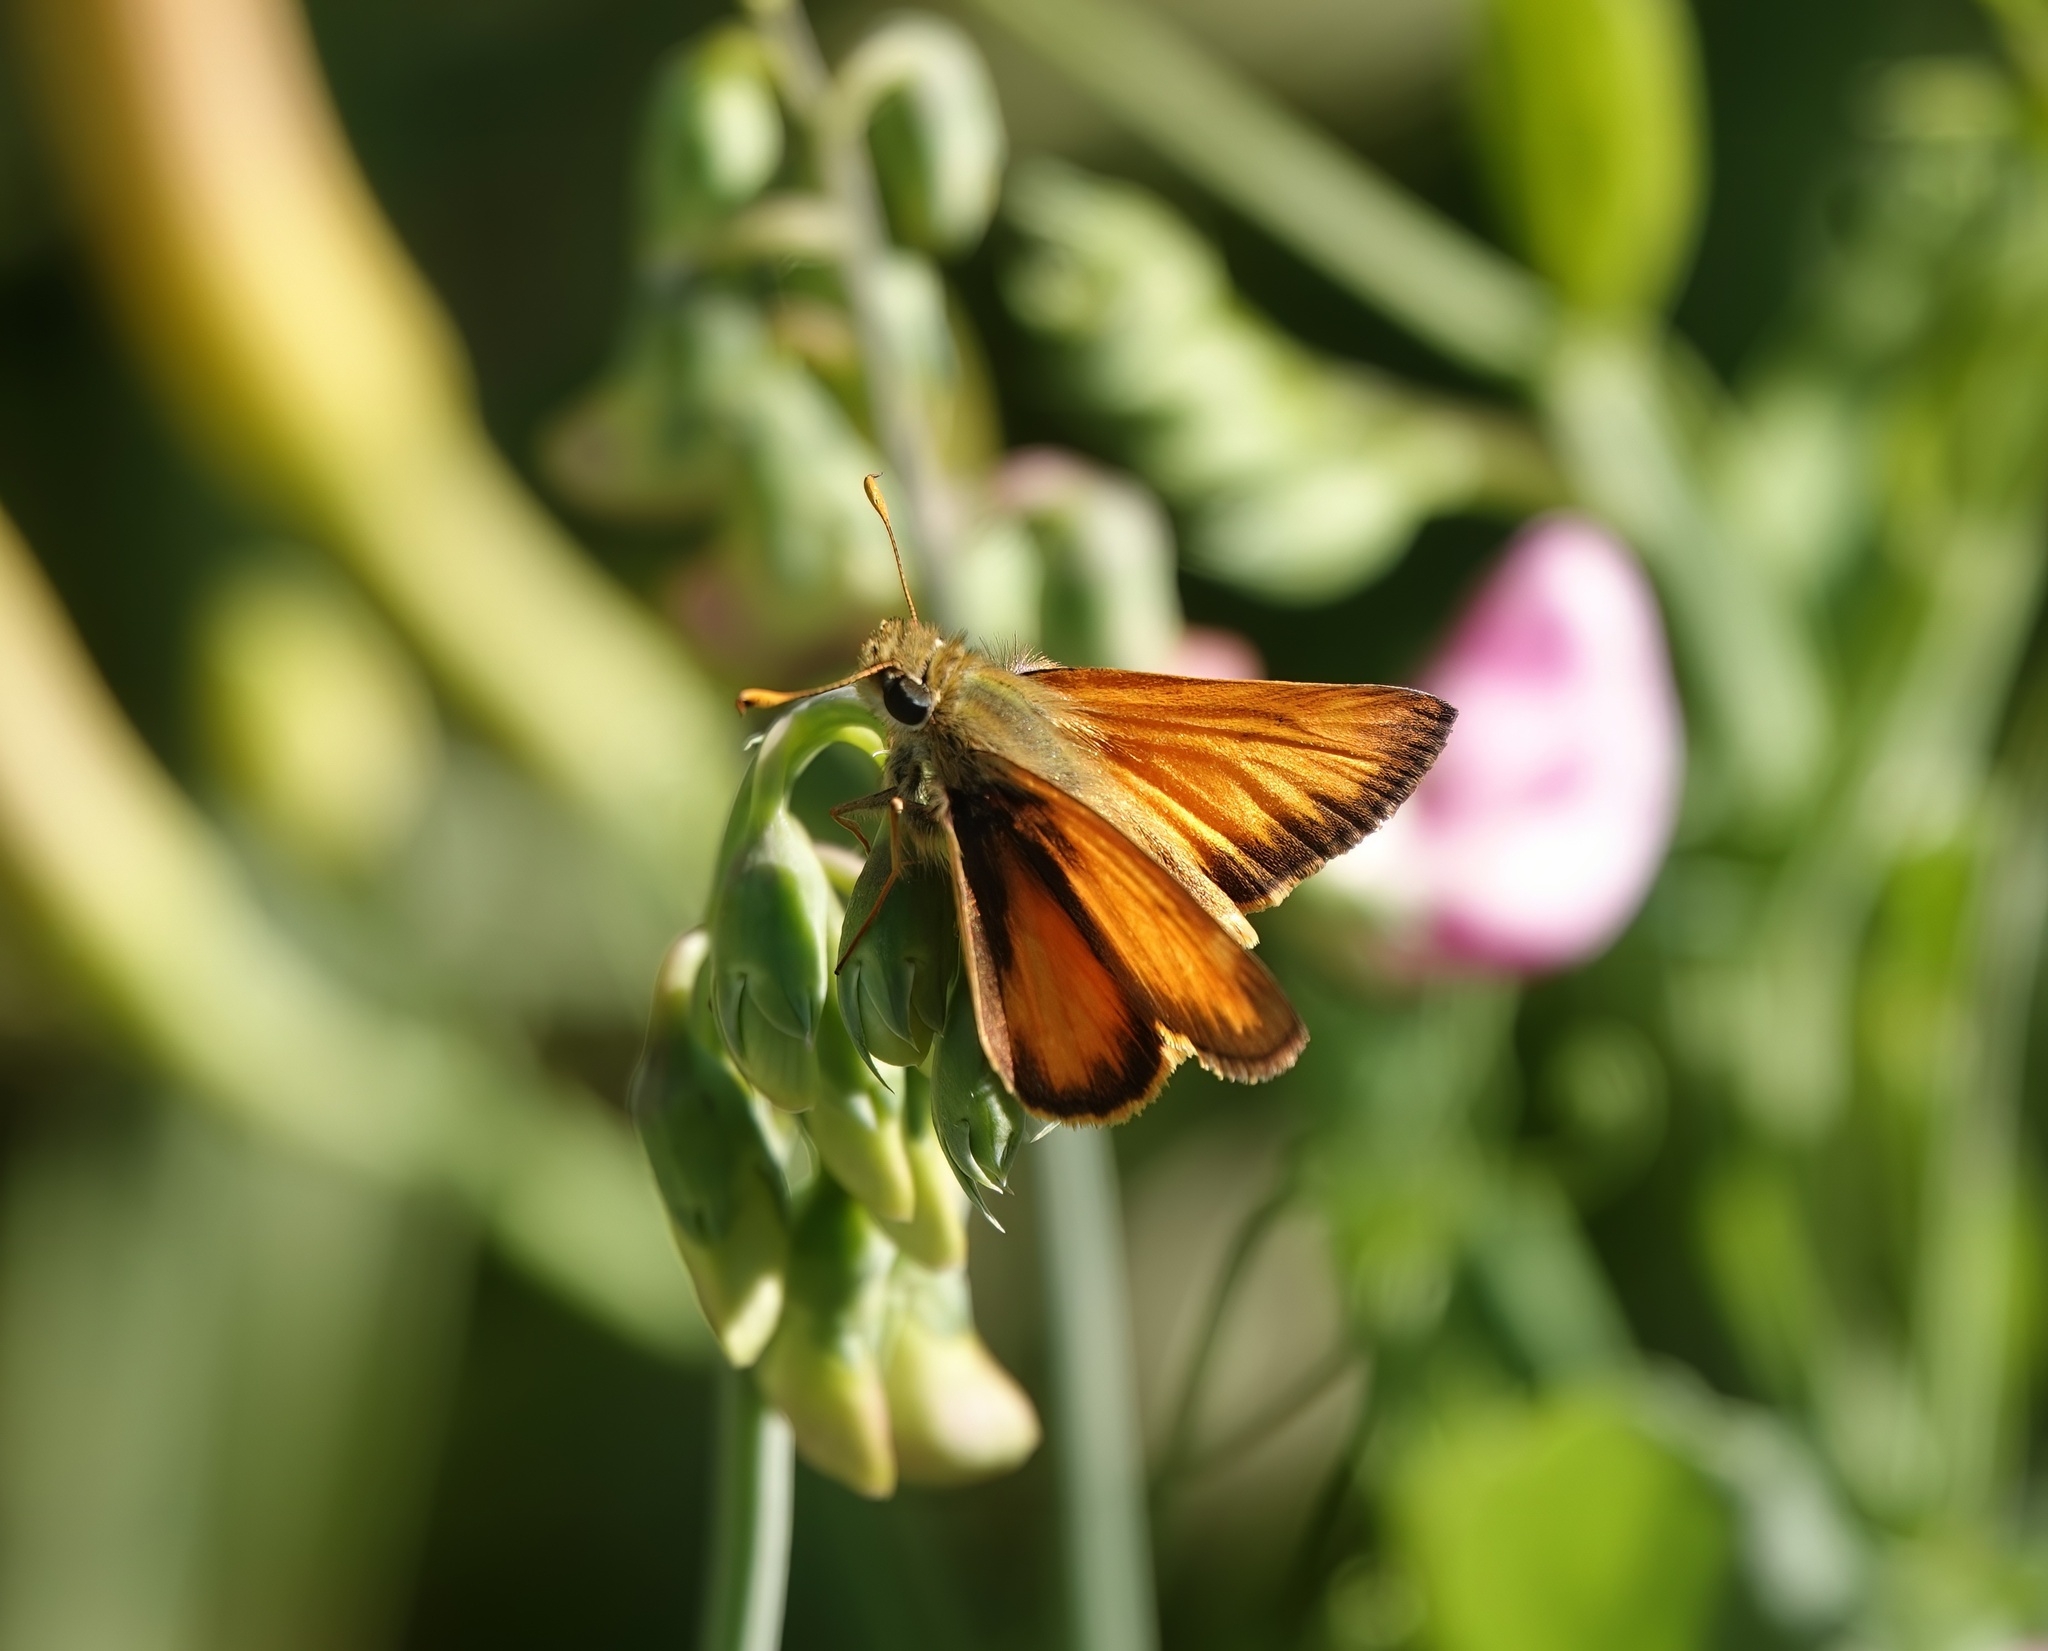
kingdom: Animalia
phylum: Arthropoda
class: Insecta
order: Lepidoptera
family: Hesperiidae
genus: Lon
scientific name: Lon taxiles
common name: Taxiles skipper
